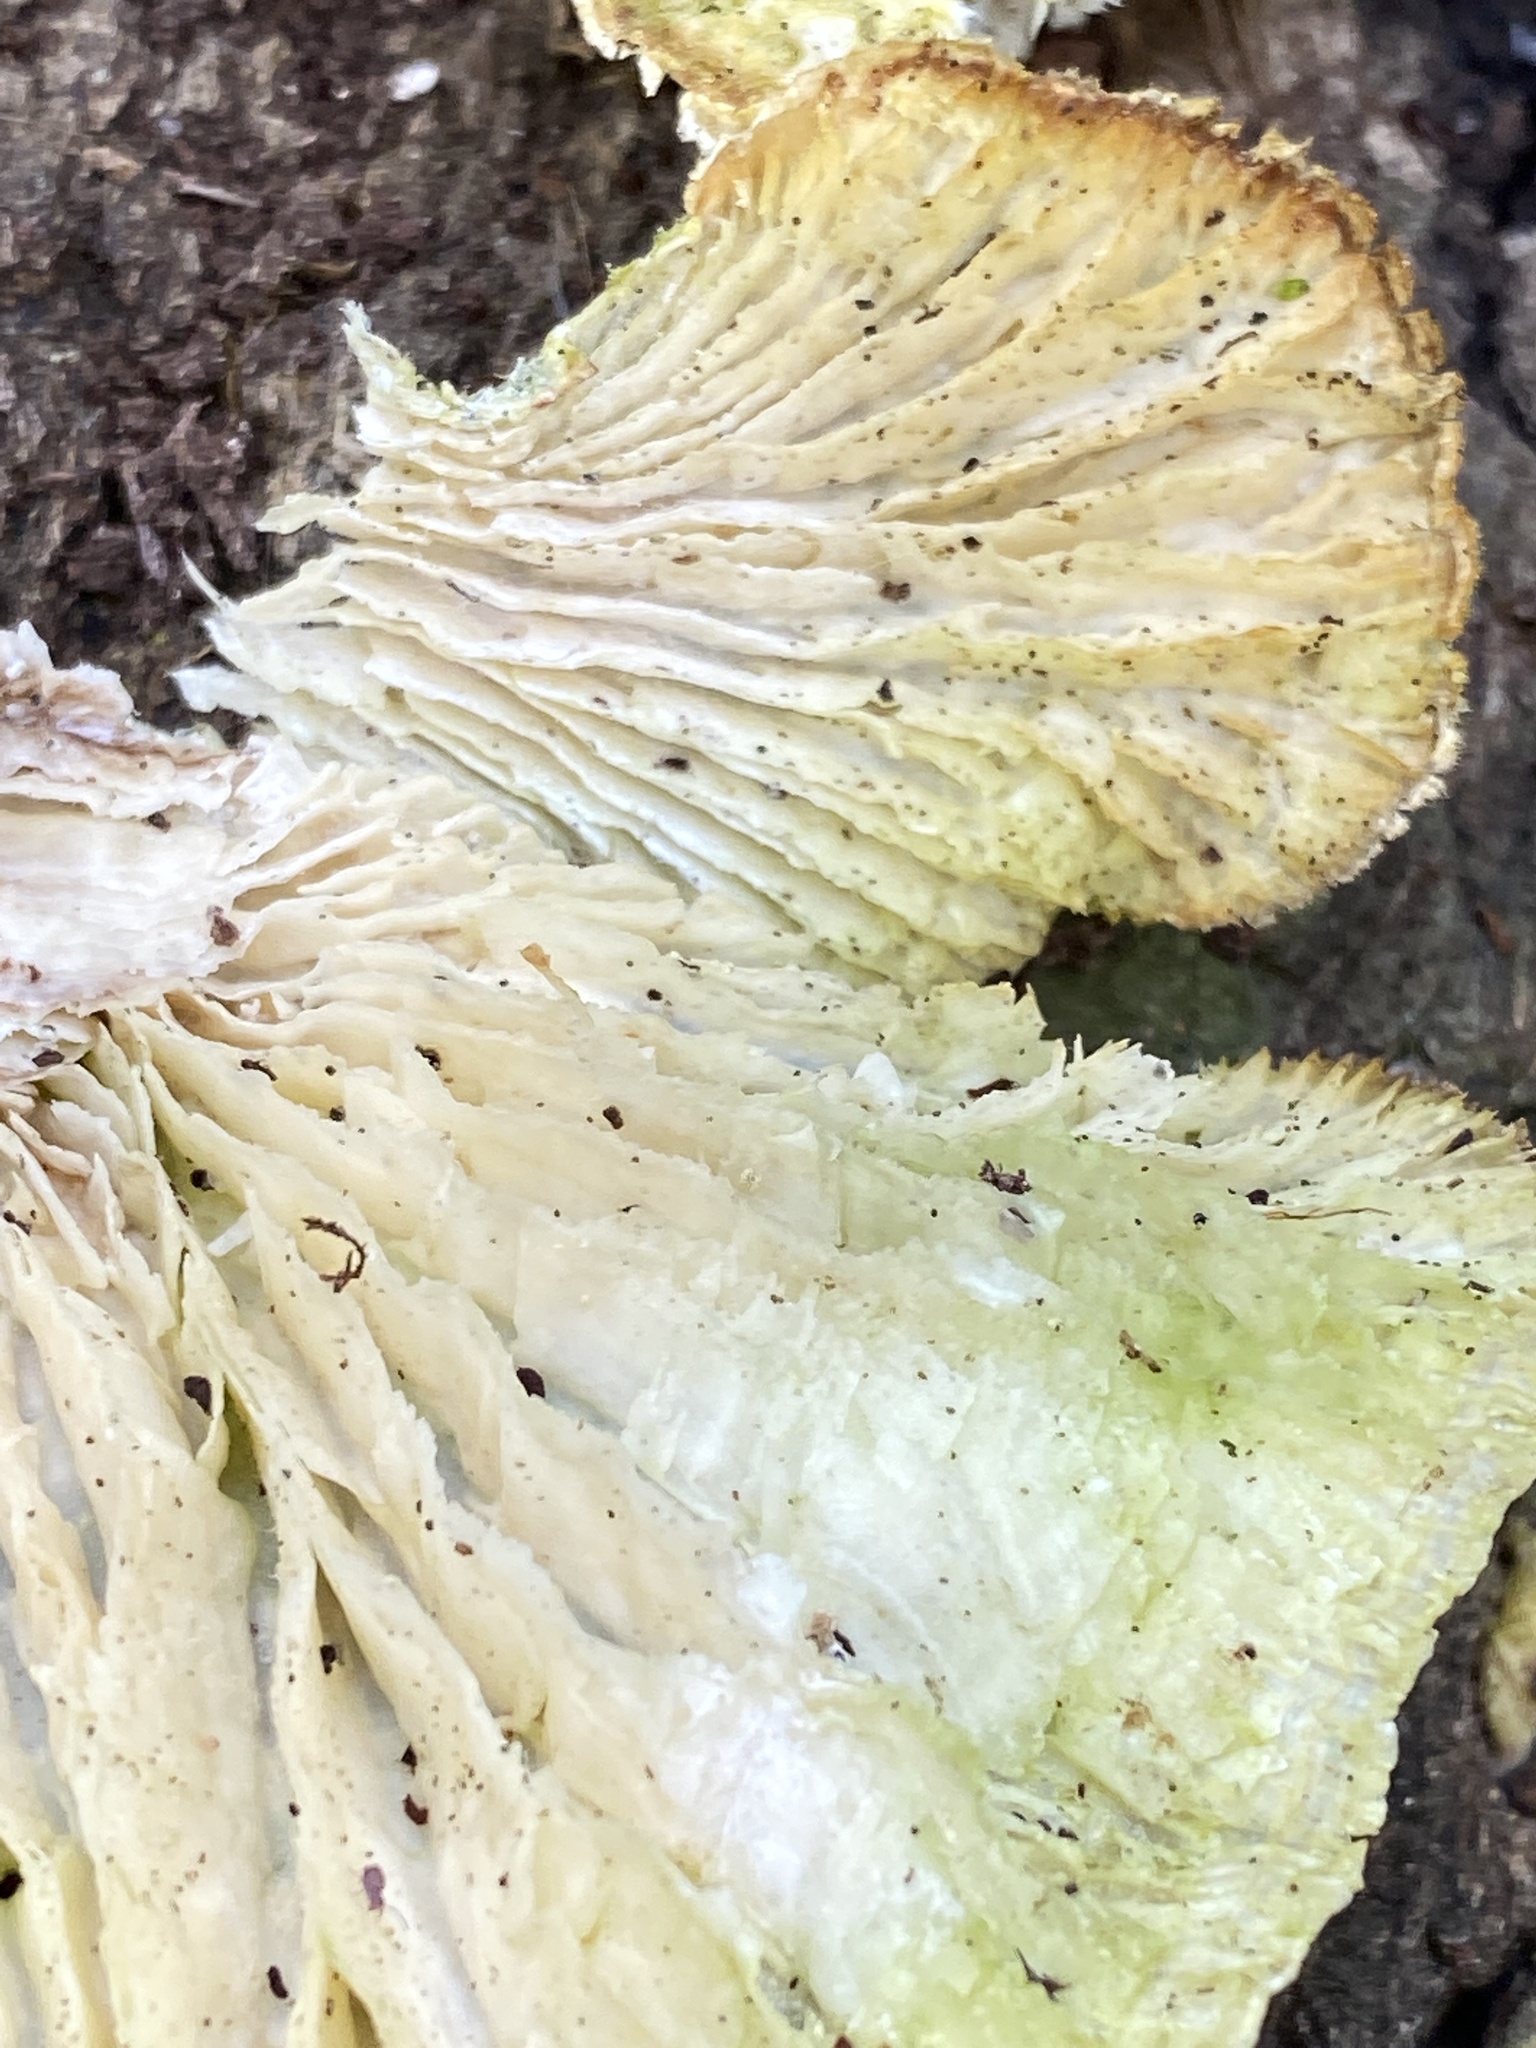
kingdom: Fungi
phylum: Basidiomycota
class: Agaricomycetes
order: Polyporales
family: Polyporaceae
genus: Lenzites
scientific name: Lenzites betulinus
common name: Birch mazegill
